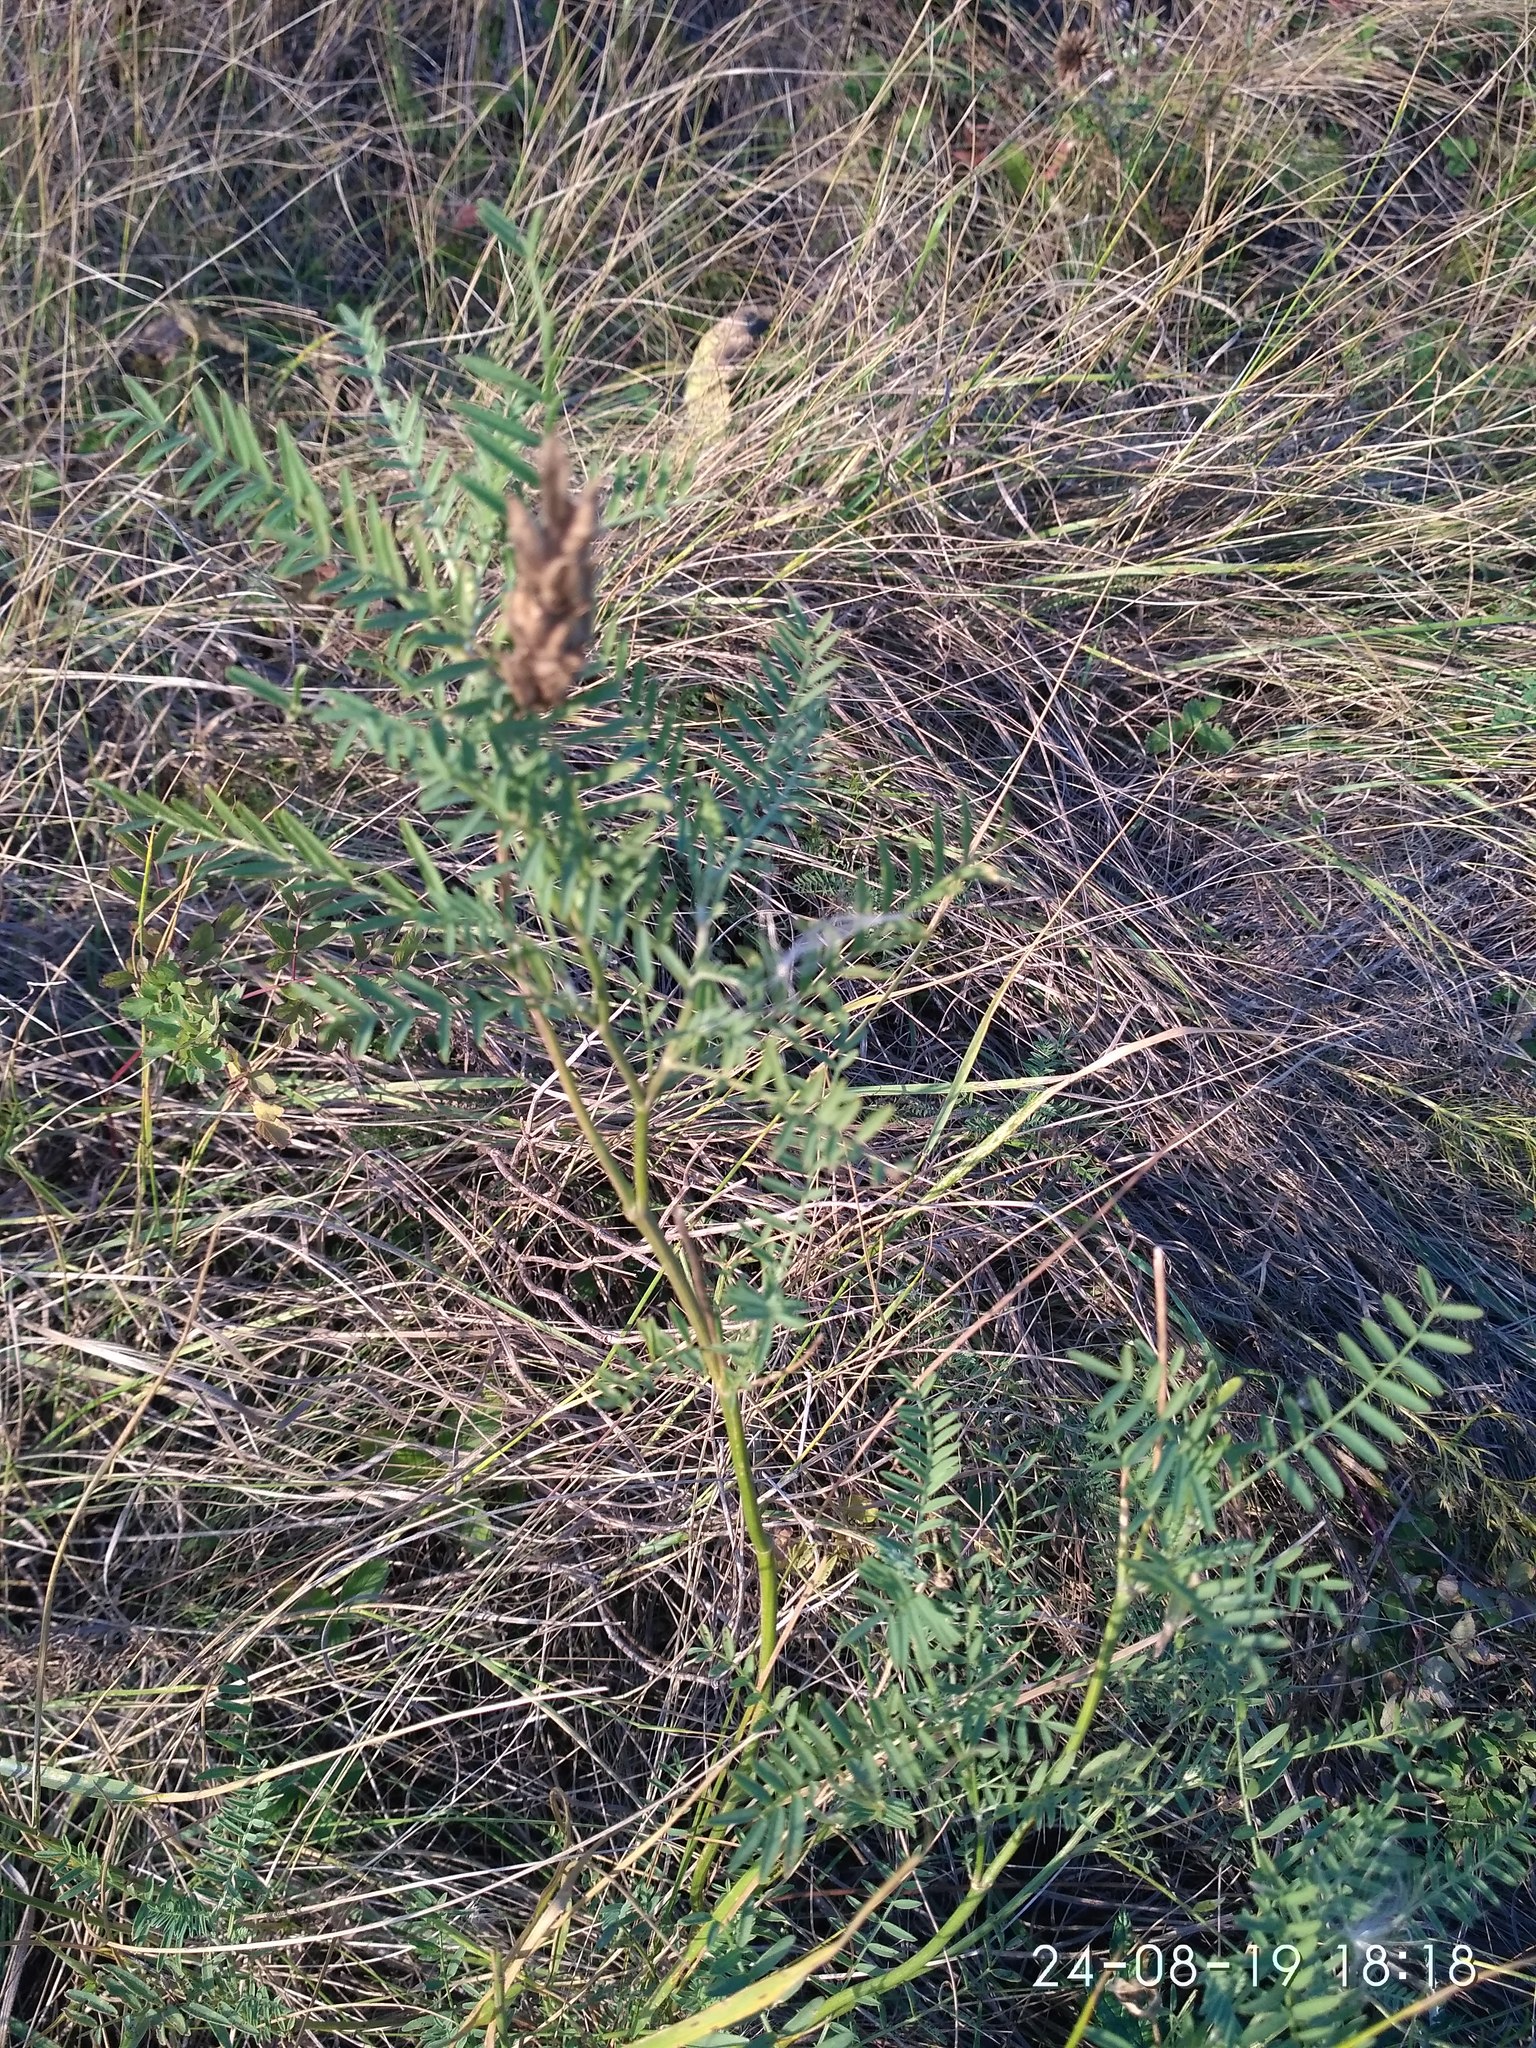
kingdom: Plantae
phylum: Tracheophyta
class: Magnoliopsida
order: Fabales
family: Fabaceae
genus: Astragalus
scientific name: Astragalus onobrychis
